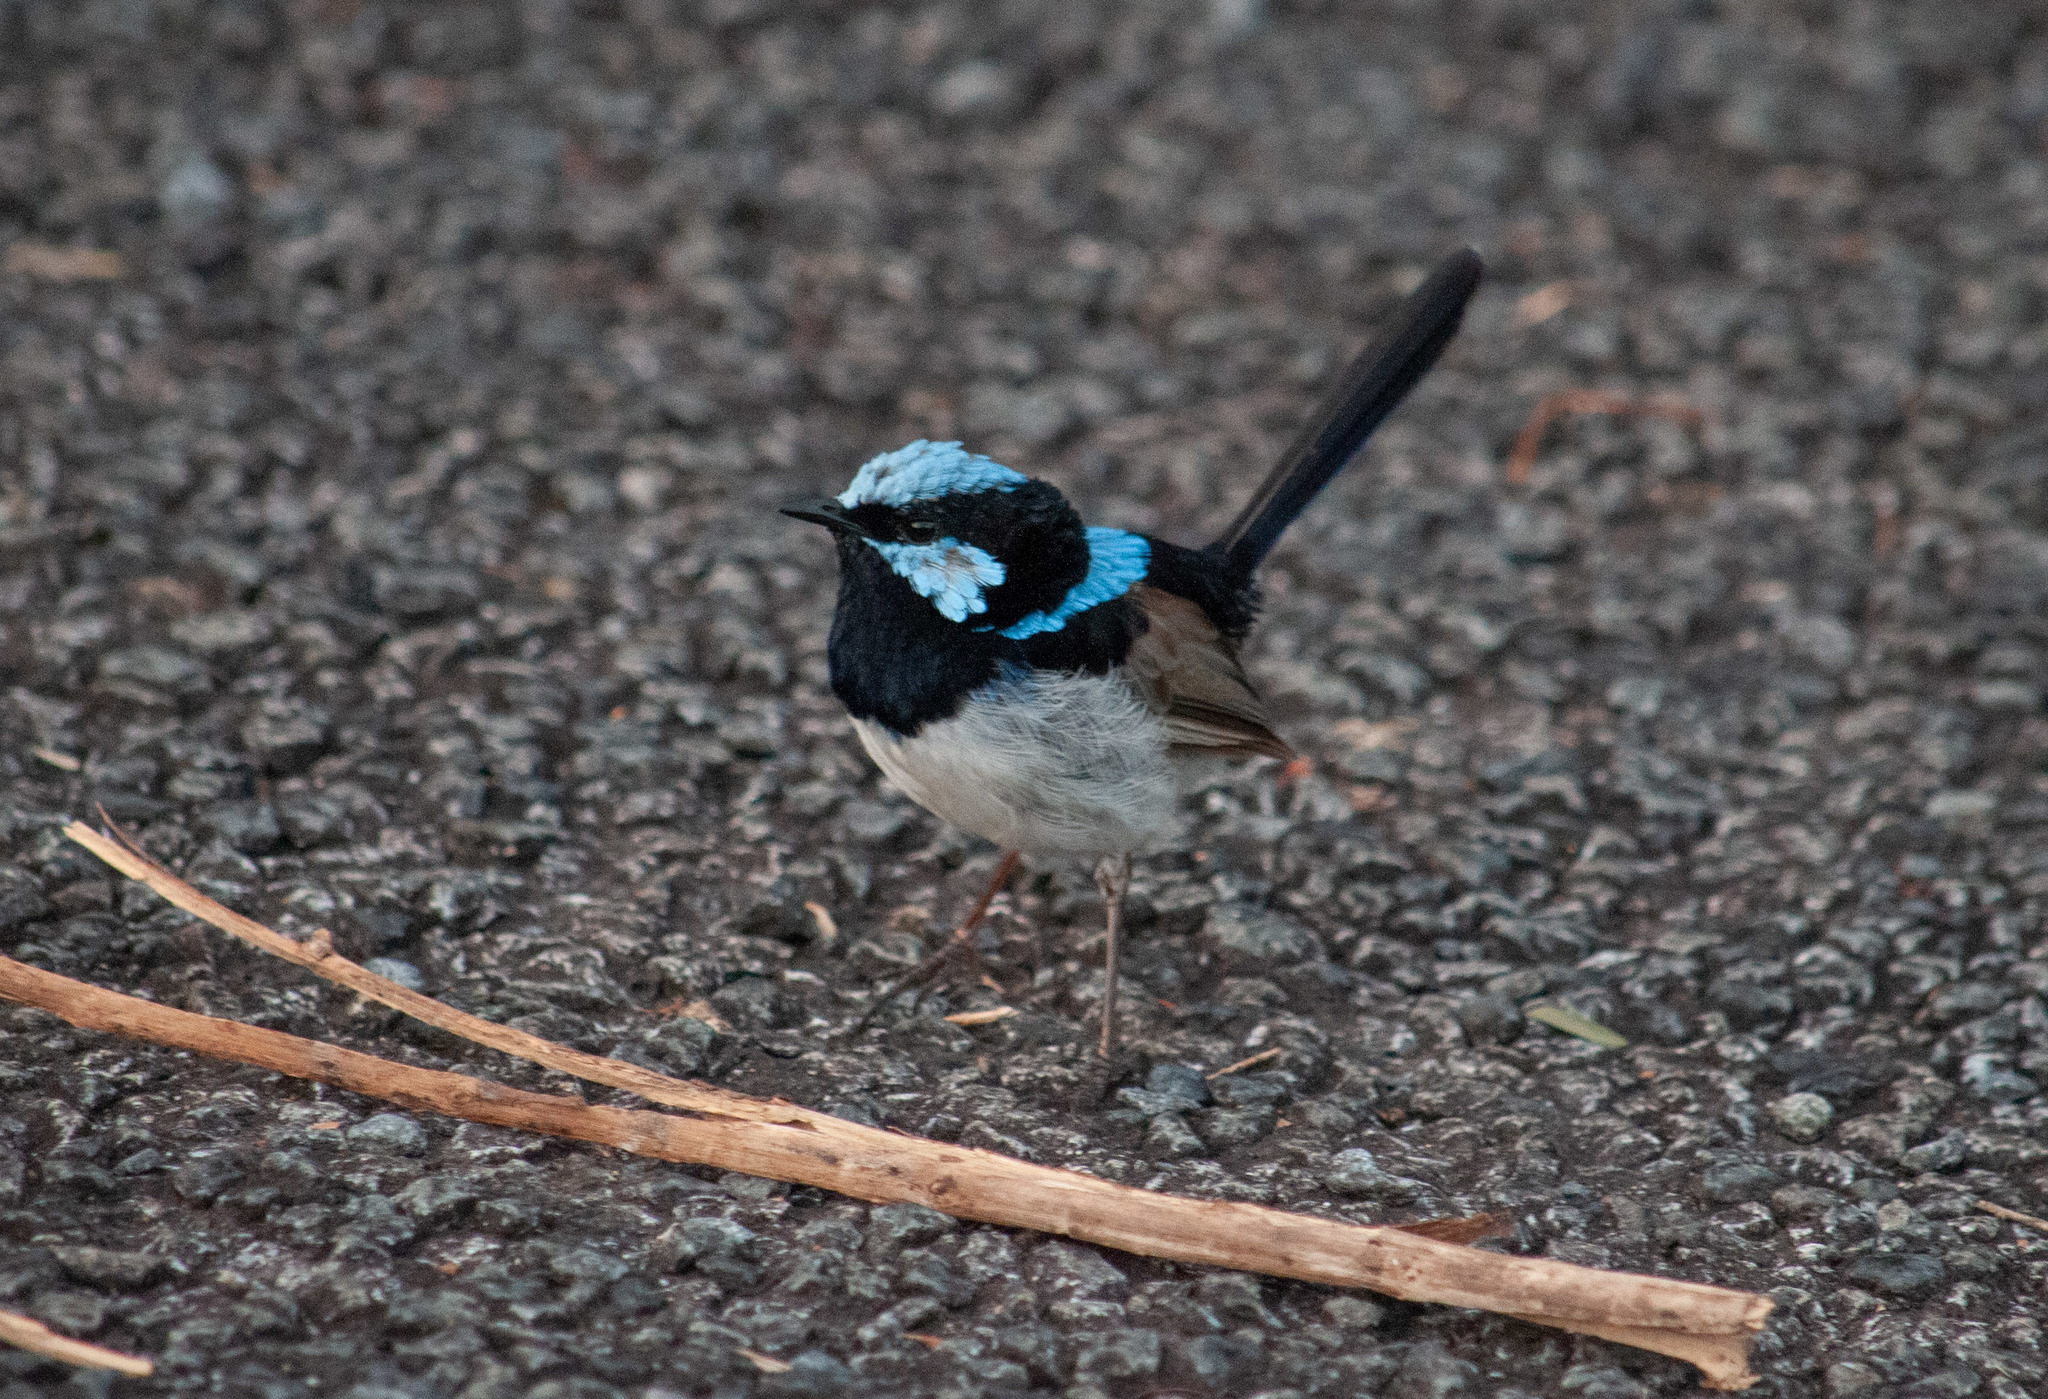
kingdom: Animalia
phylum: Chordata
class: Aves
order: Passeriformes
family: Maluridae
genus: Malurus
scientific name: Malurus cyaneus
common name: Superb fairywren
